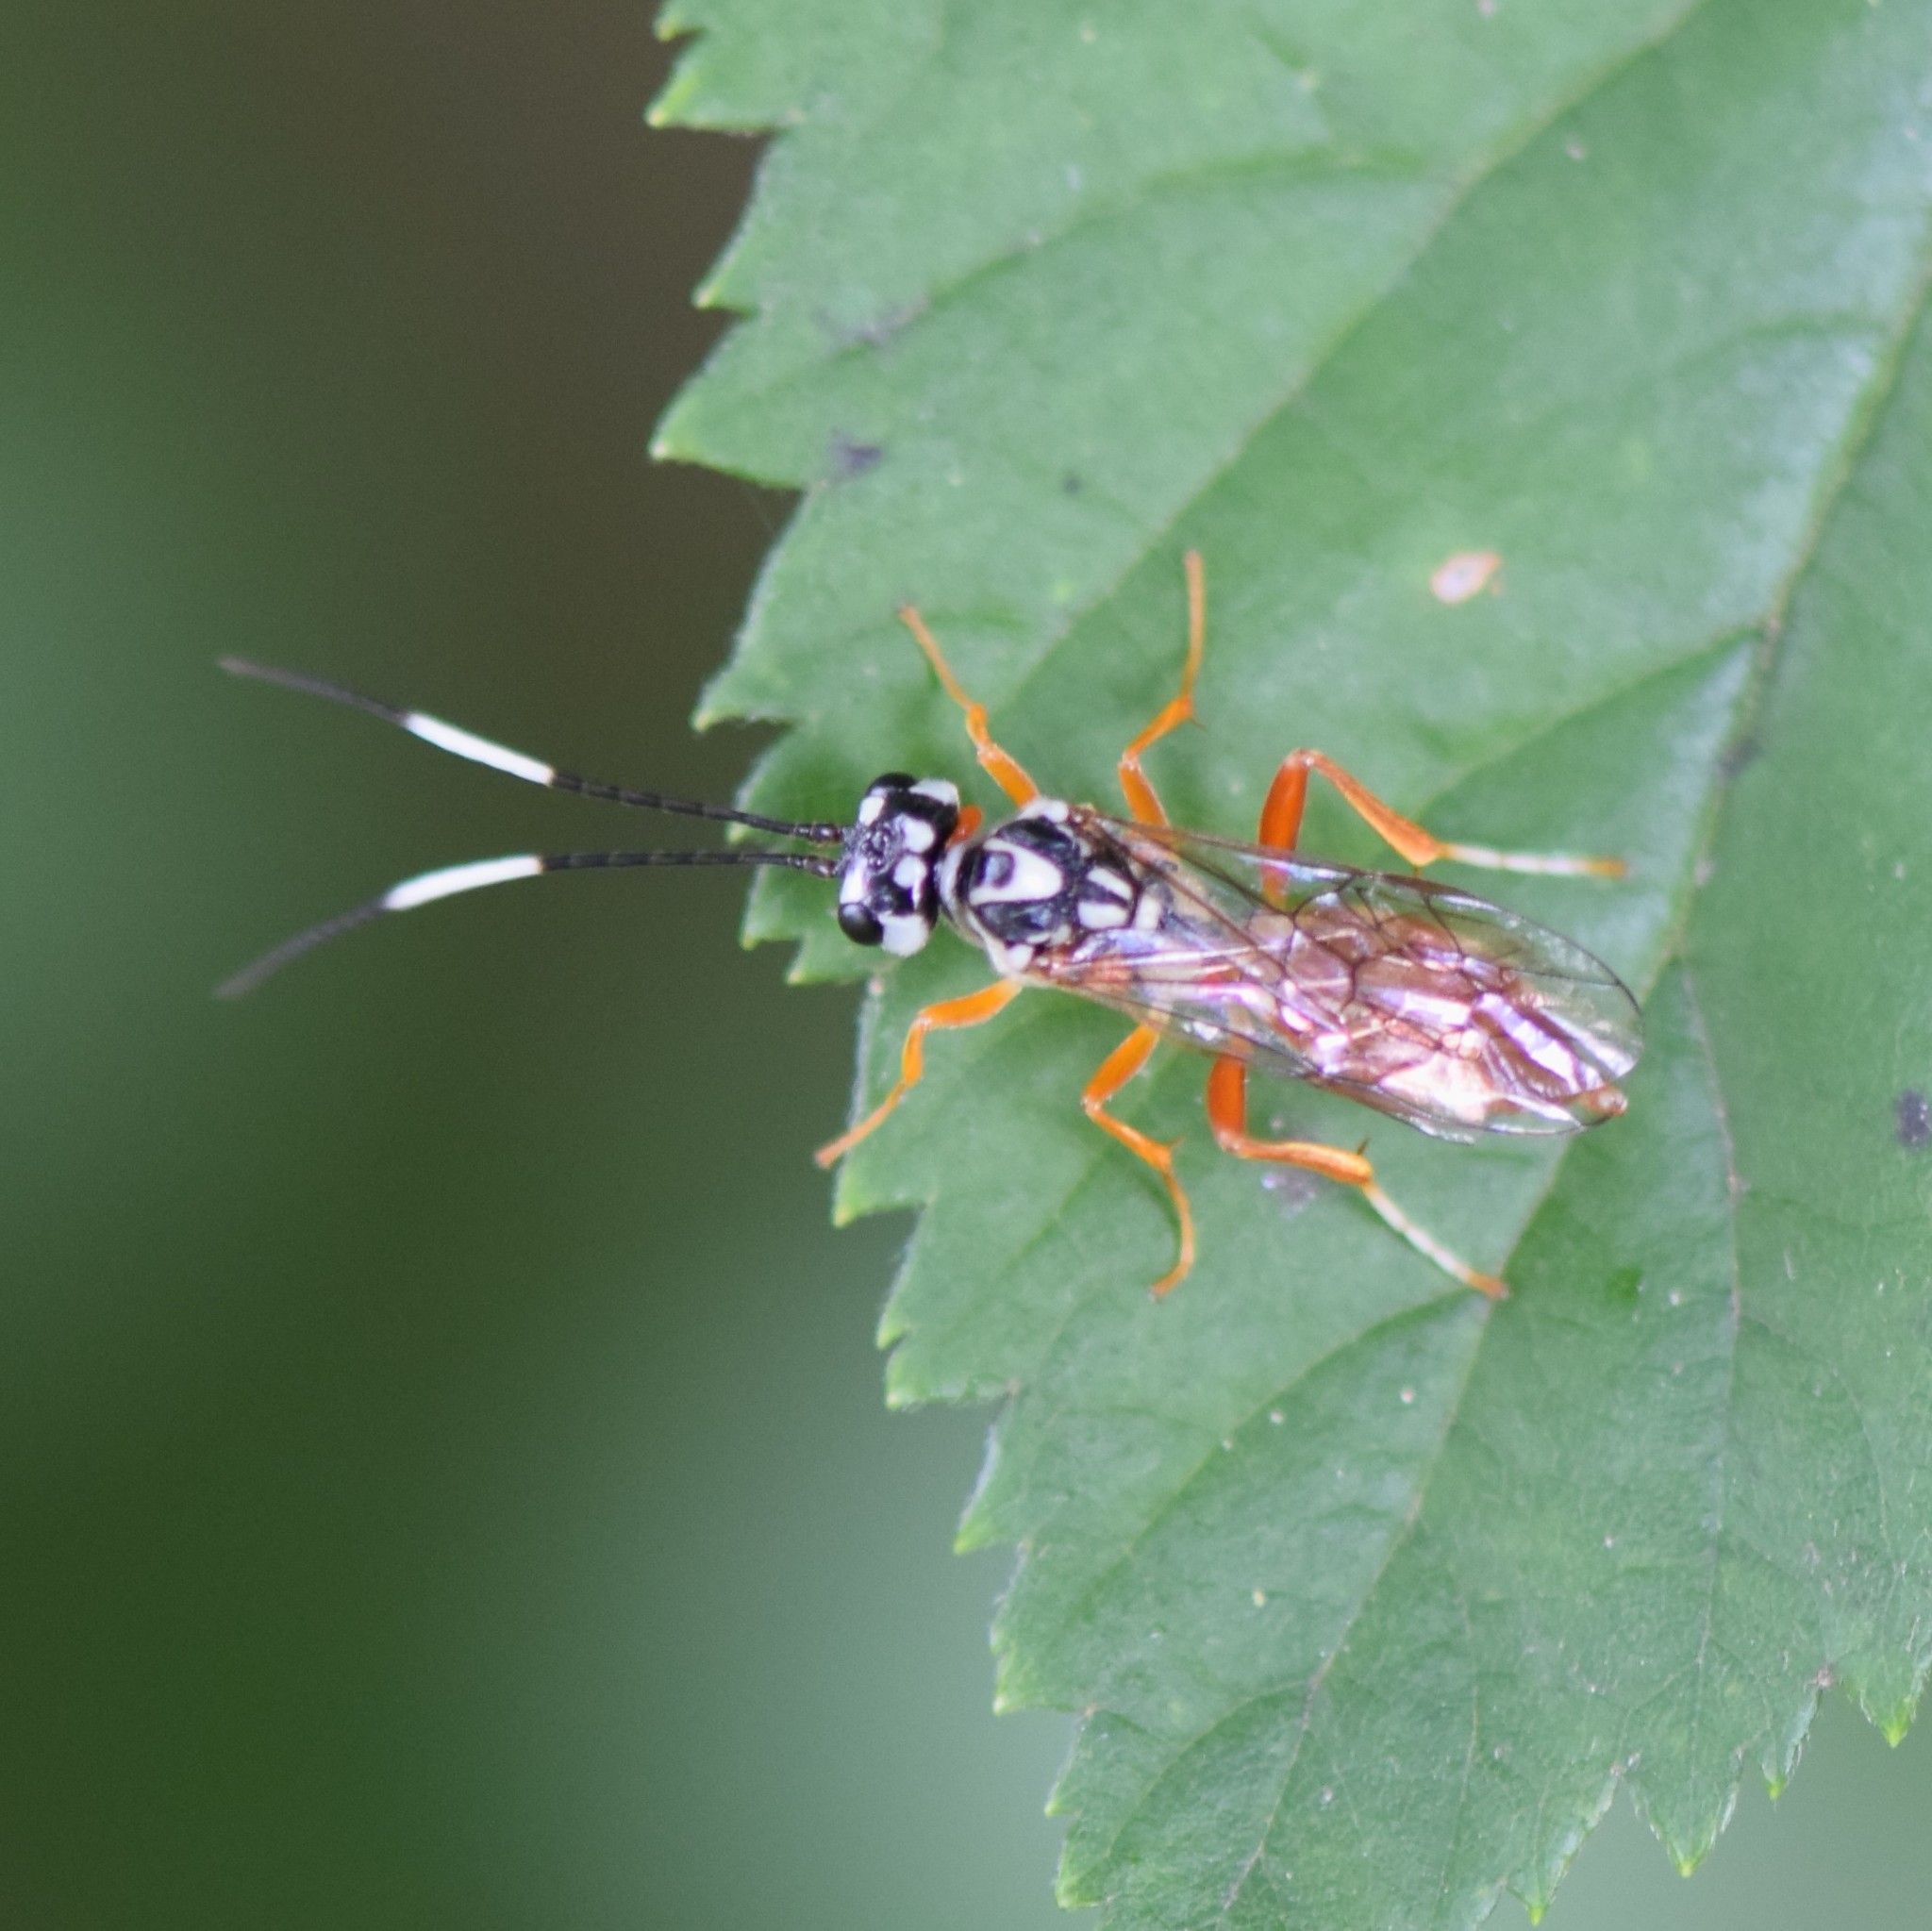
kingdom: Animalia
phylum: Arthropoda
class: Insecta
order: Hymenoptera
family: Trigonalidae
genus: Orthogonalys
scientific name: Orthogonalys pulchella
